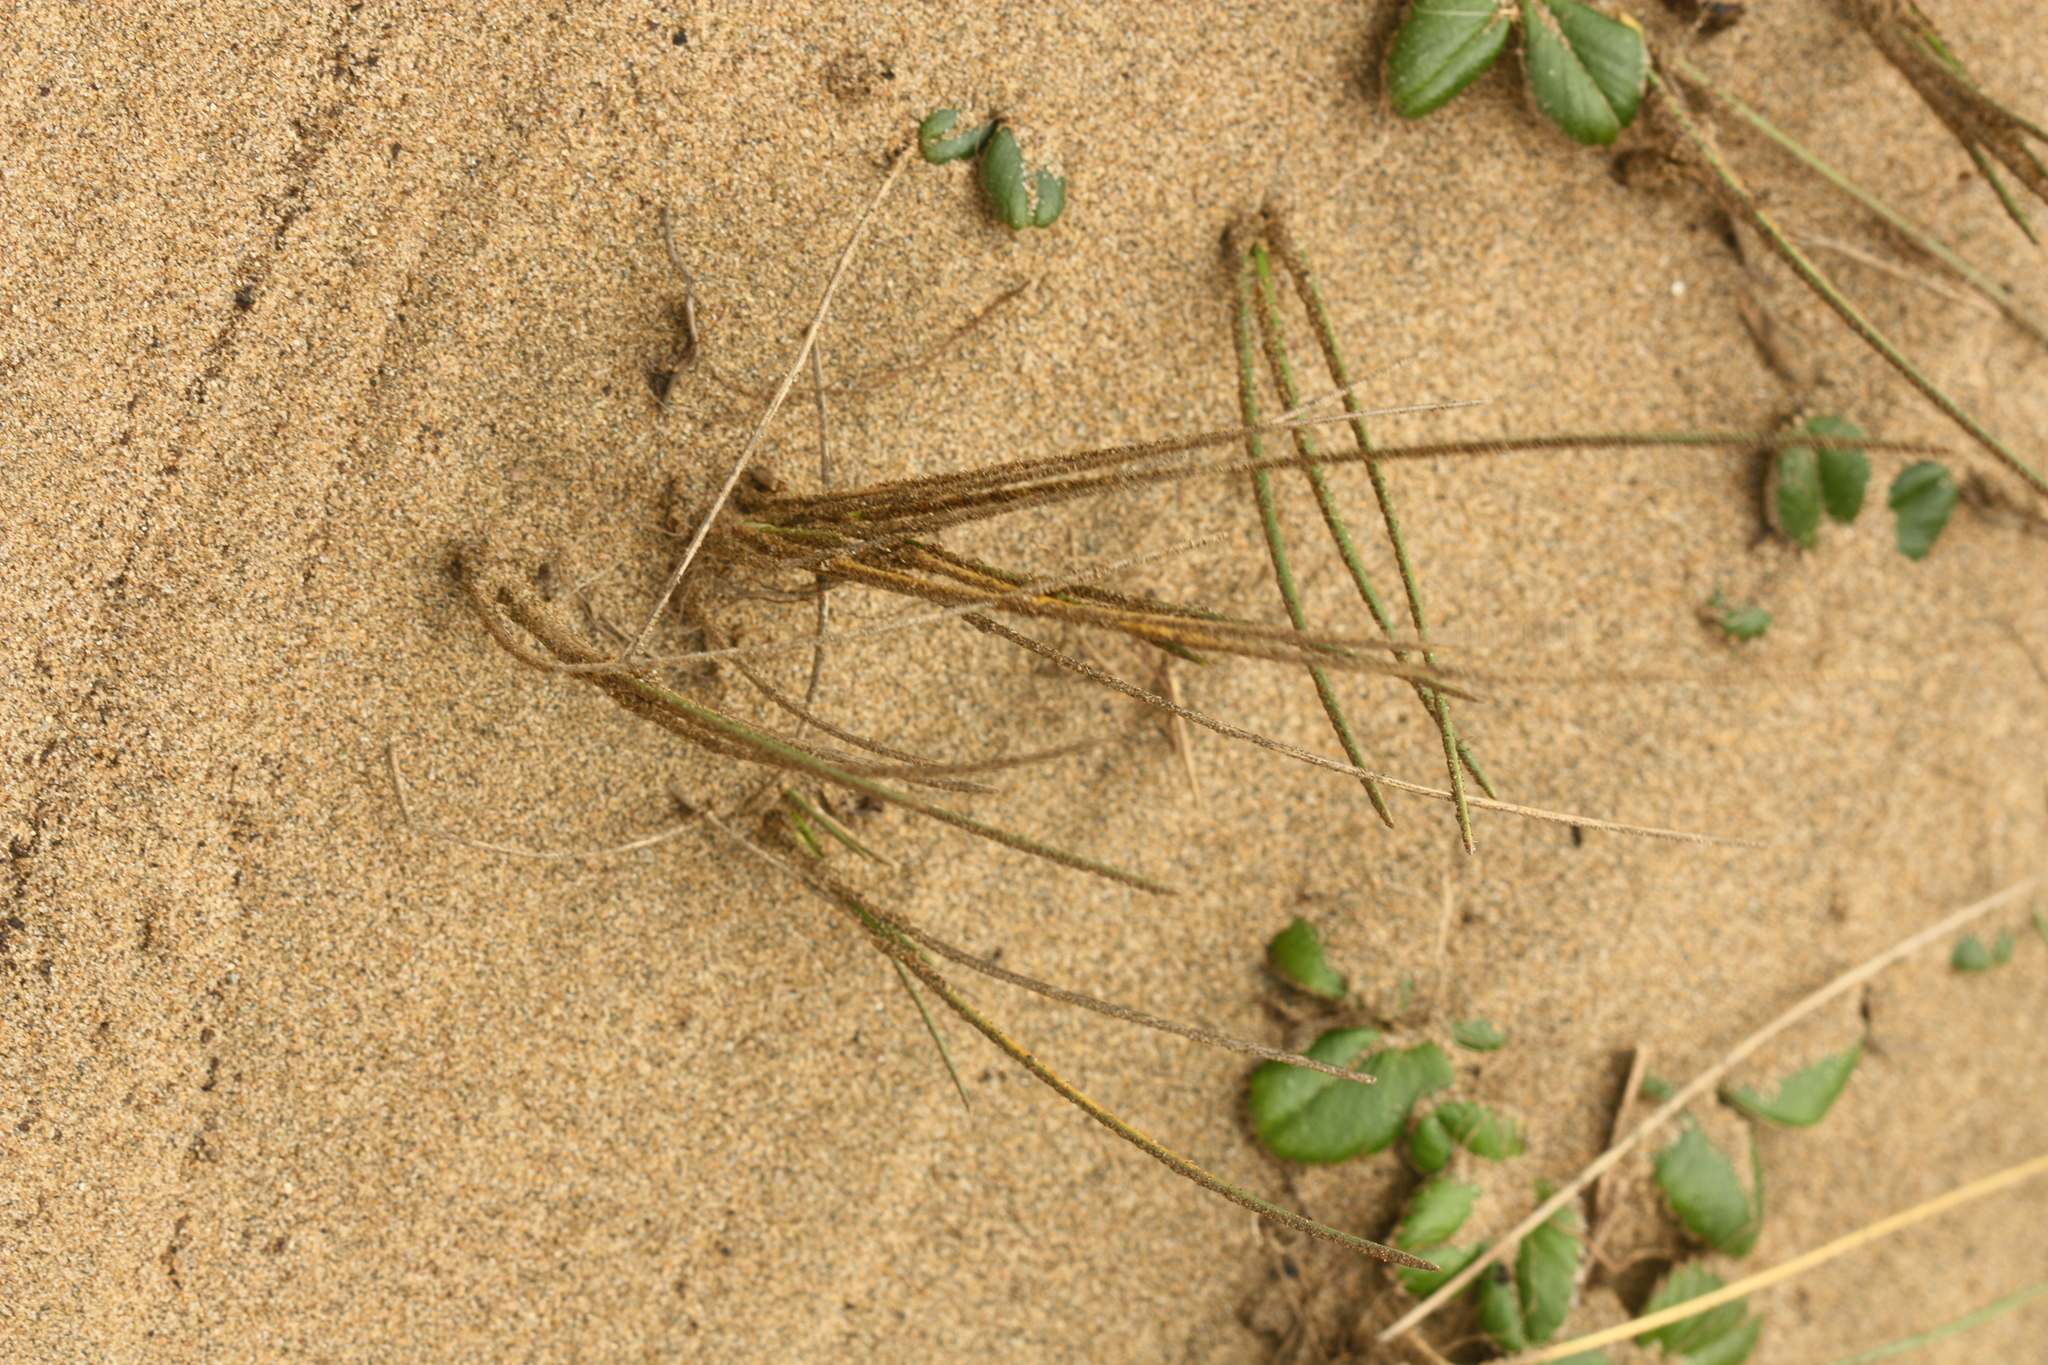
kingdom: Plantae
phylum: Tracheophyta
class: Liliopsida
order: Poales
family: Poaceae
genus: Poa
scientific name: Poa douglasii
